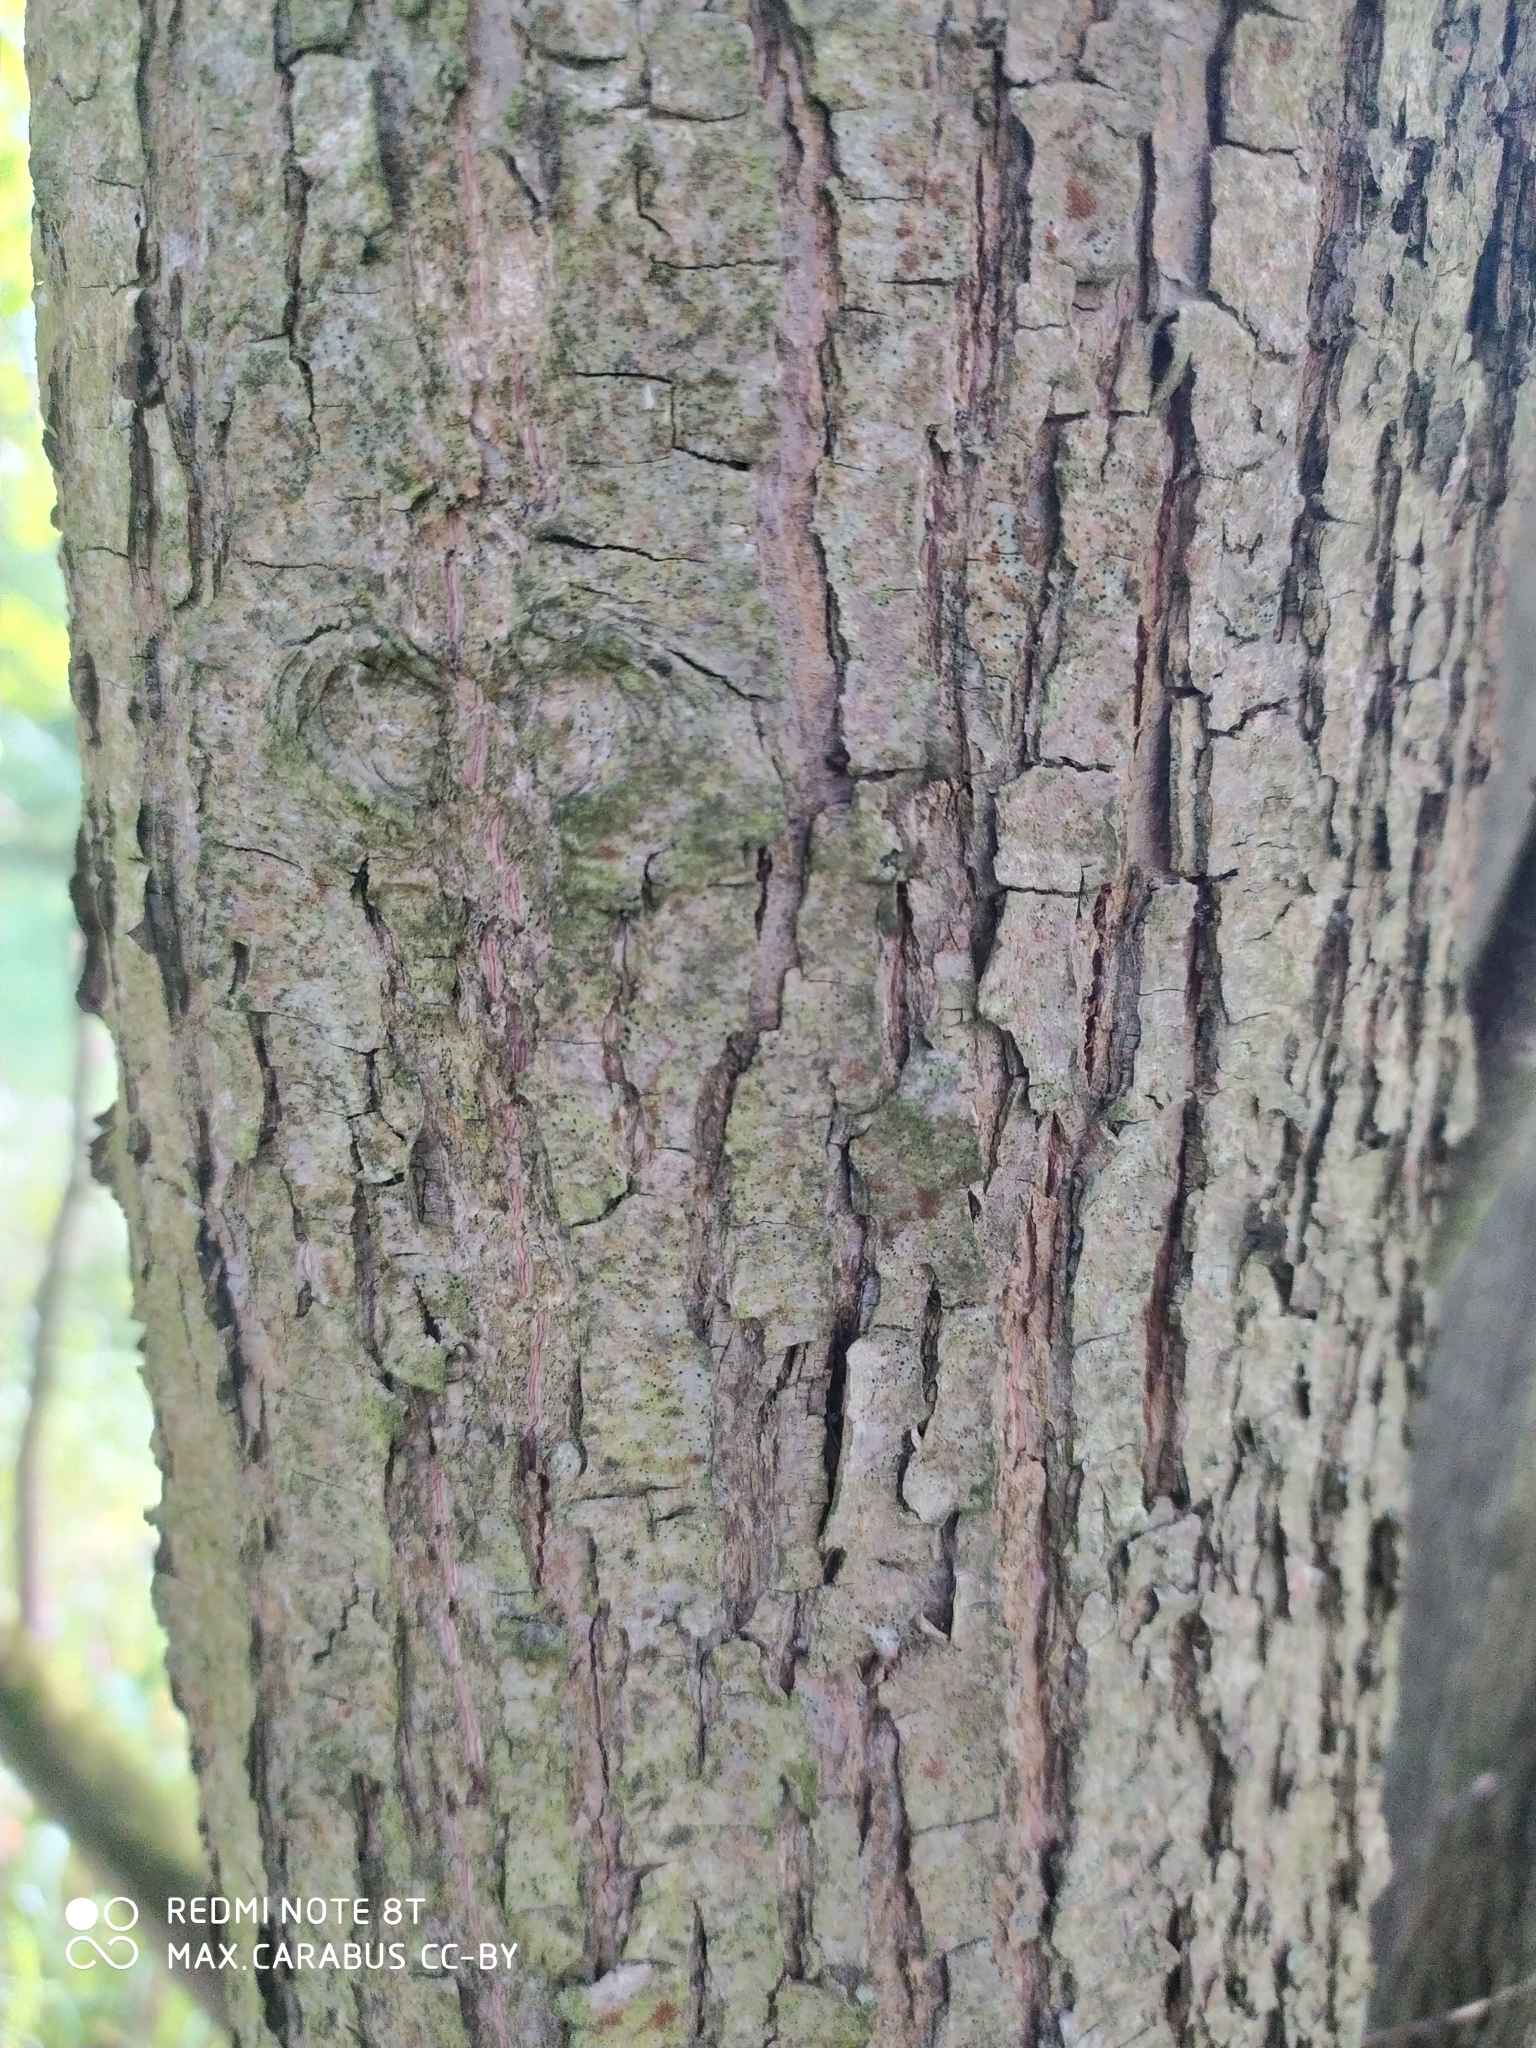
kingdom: Plantae
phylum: Tracheophyta
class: Magnoliopsida
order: Malvales
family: Malvaceae
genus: Tilia
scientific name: Tilia cordata
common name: Small-leaved lime
